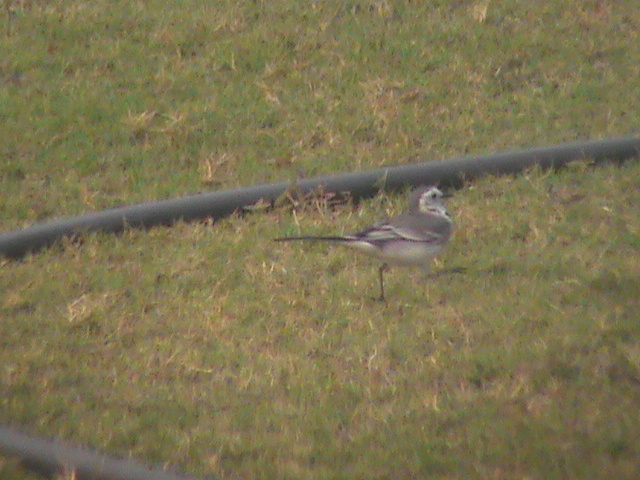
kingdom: Animalia
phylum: Chordata
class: Aves
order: Passeriformes
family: Motacillidae
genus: Motacilla
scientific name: Motacilla alba
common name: White wagtail
